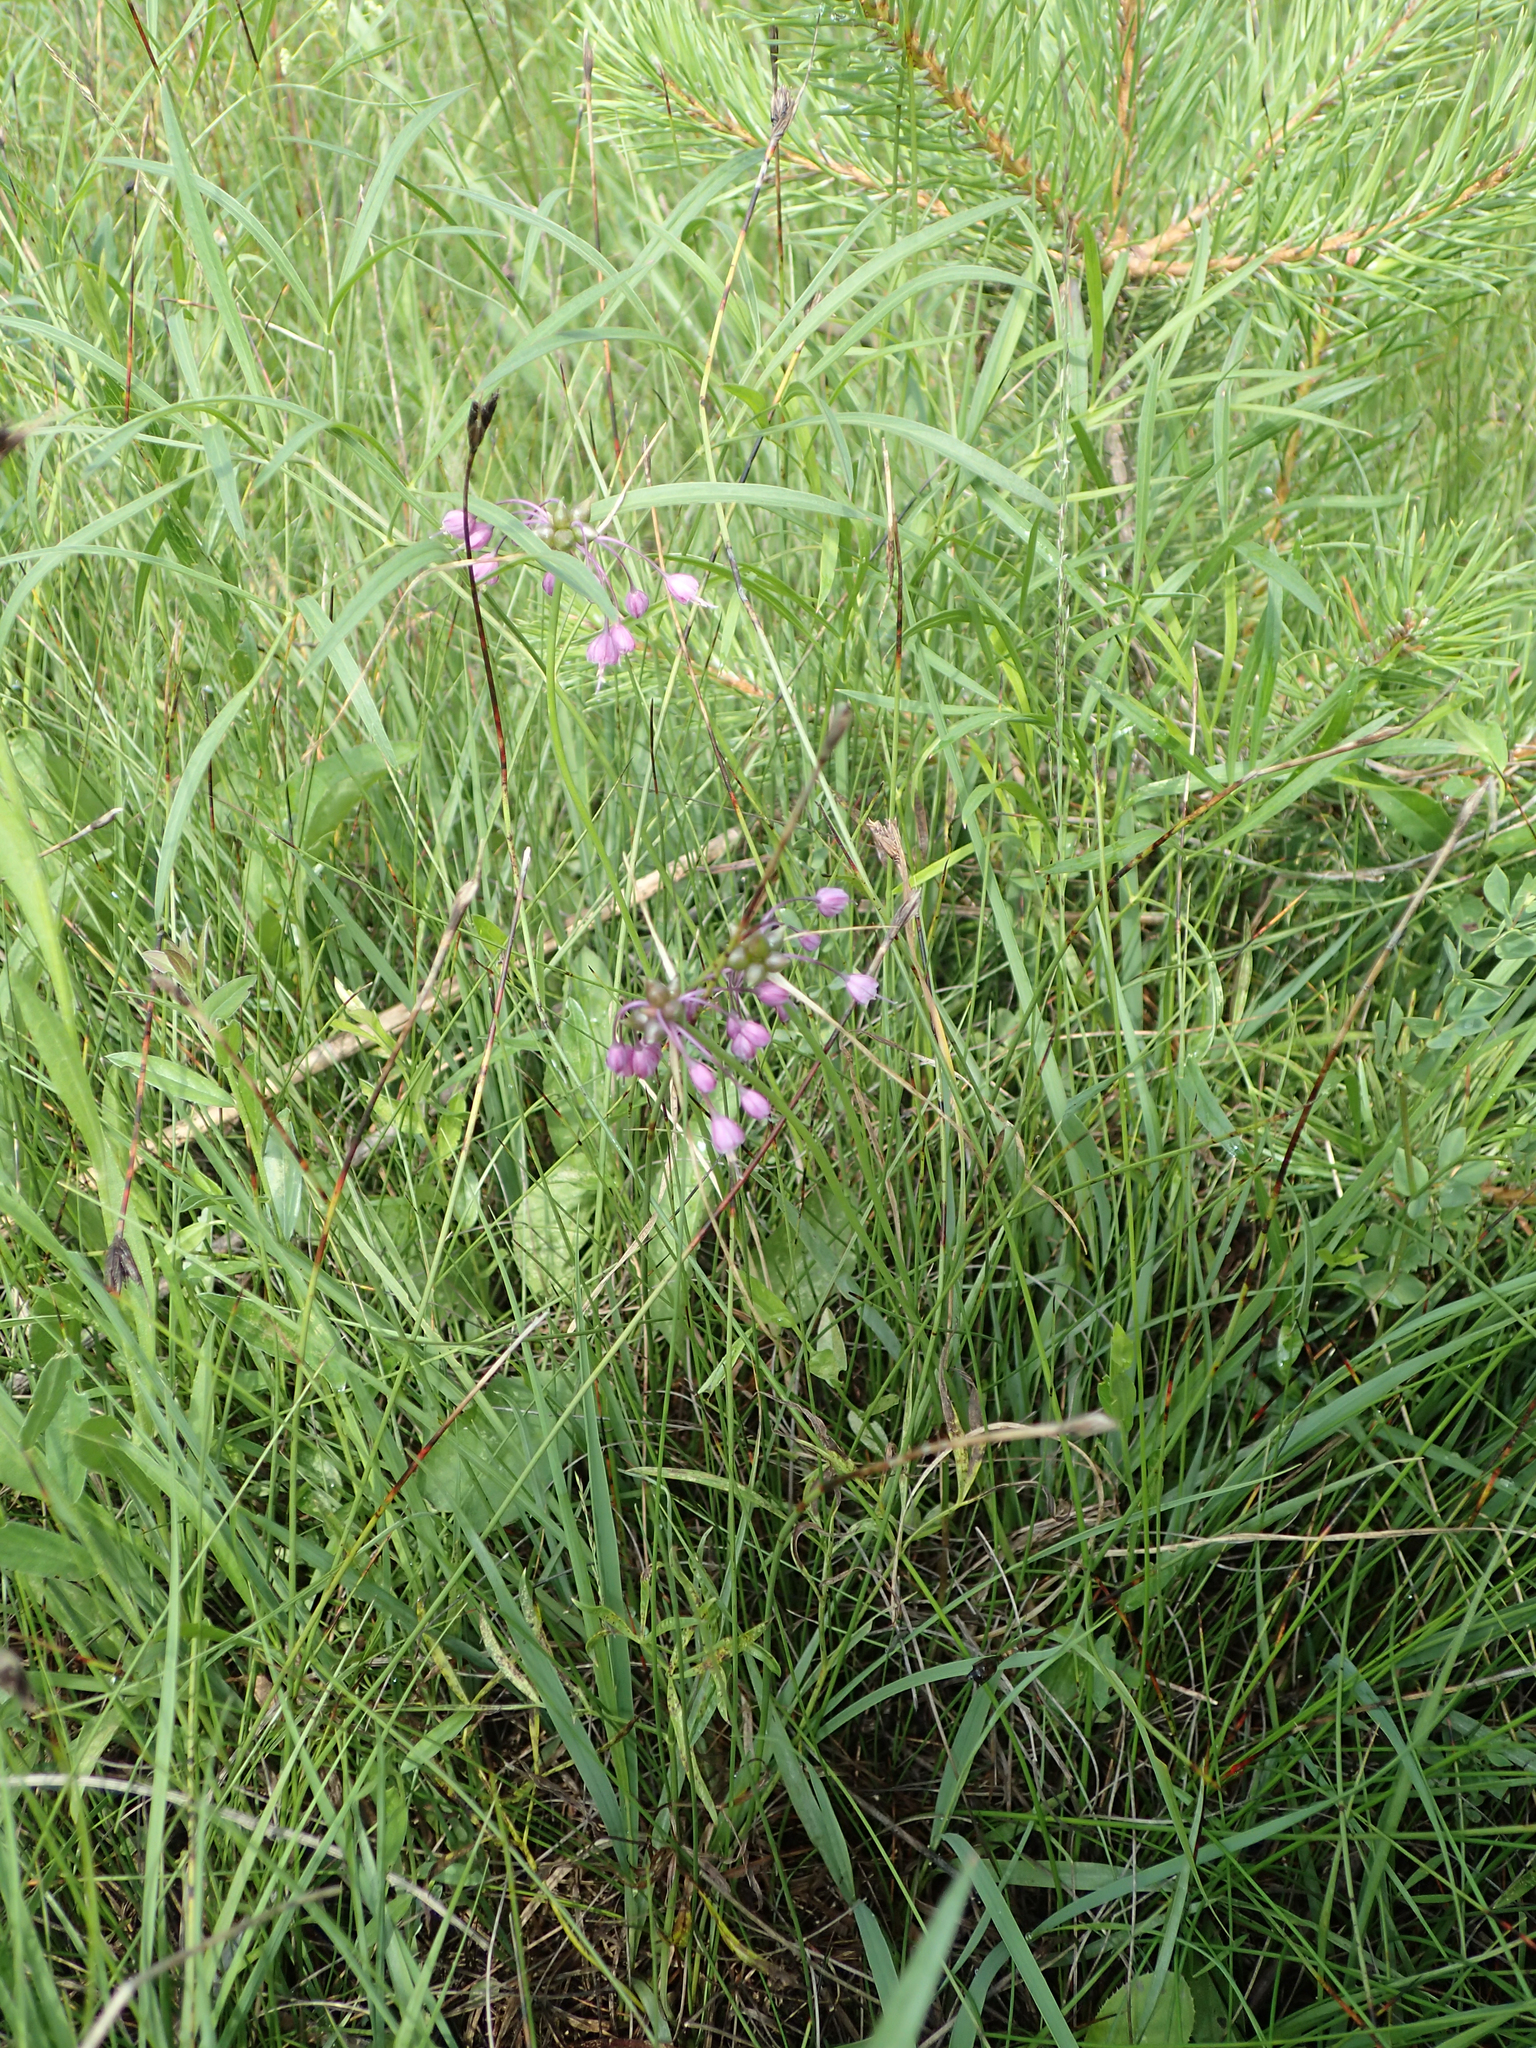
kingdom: Plantae
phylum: Tracheophyta
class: Liliopsida
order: Asparagales
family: Amaryllidaceae
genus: Allium
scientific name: Allium carinatum
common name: Keeled garlic
